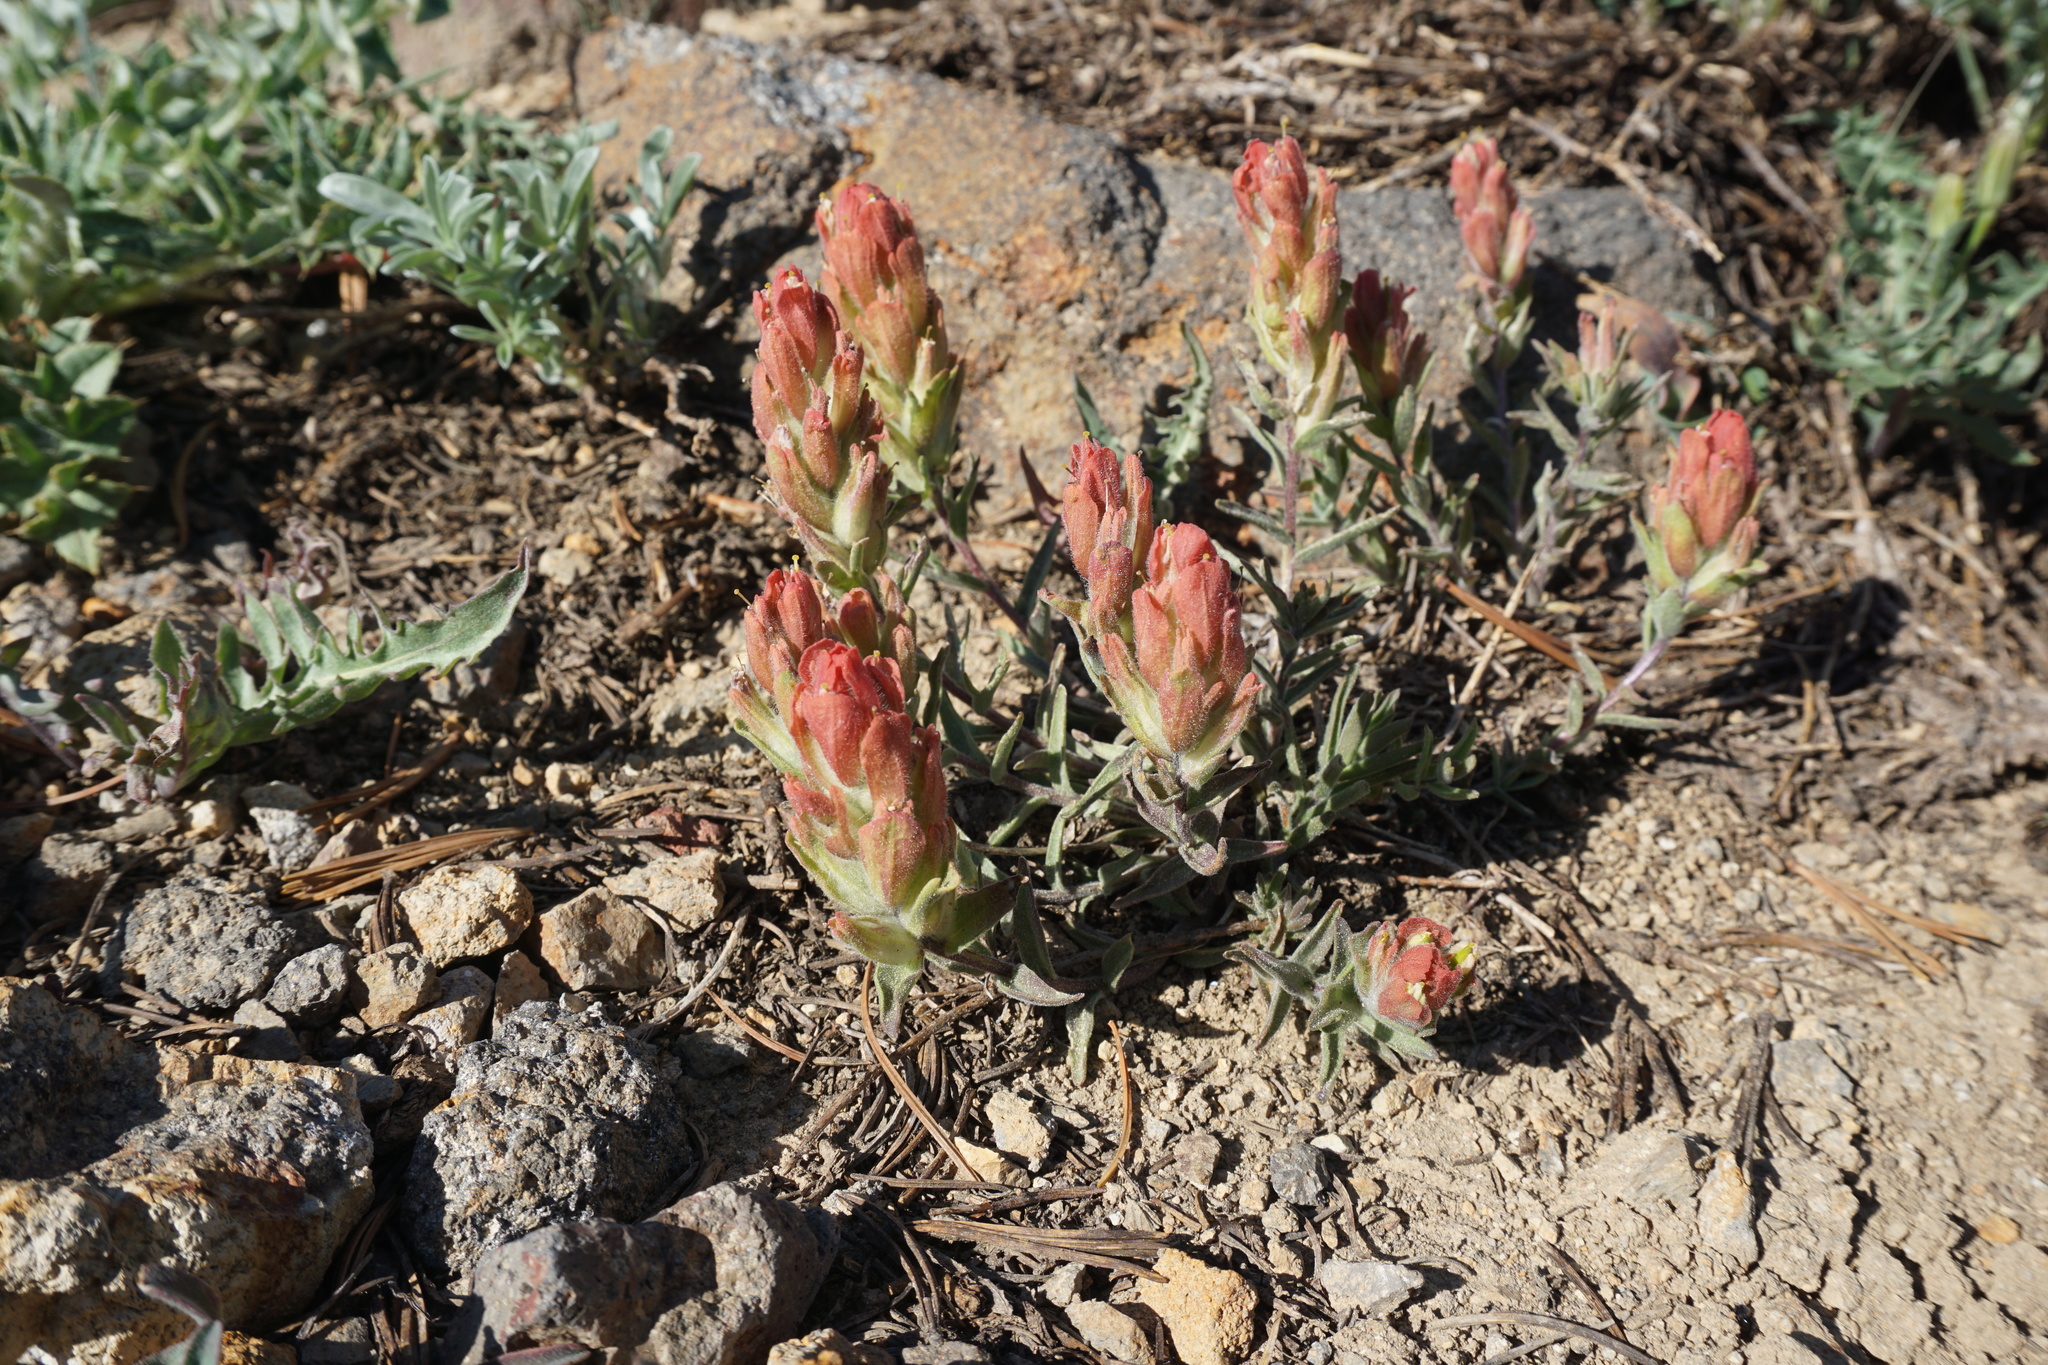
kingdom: Plantae
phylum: Tracheophyta
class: Magnoliopsida
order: Lamiales
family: Orobanchaceae
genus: Castilleja
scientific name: Castilleja arachnoidea
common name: Cobwebby indian paintbrush
